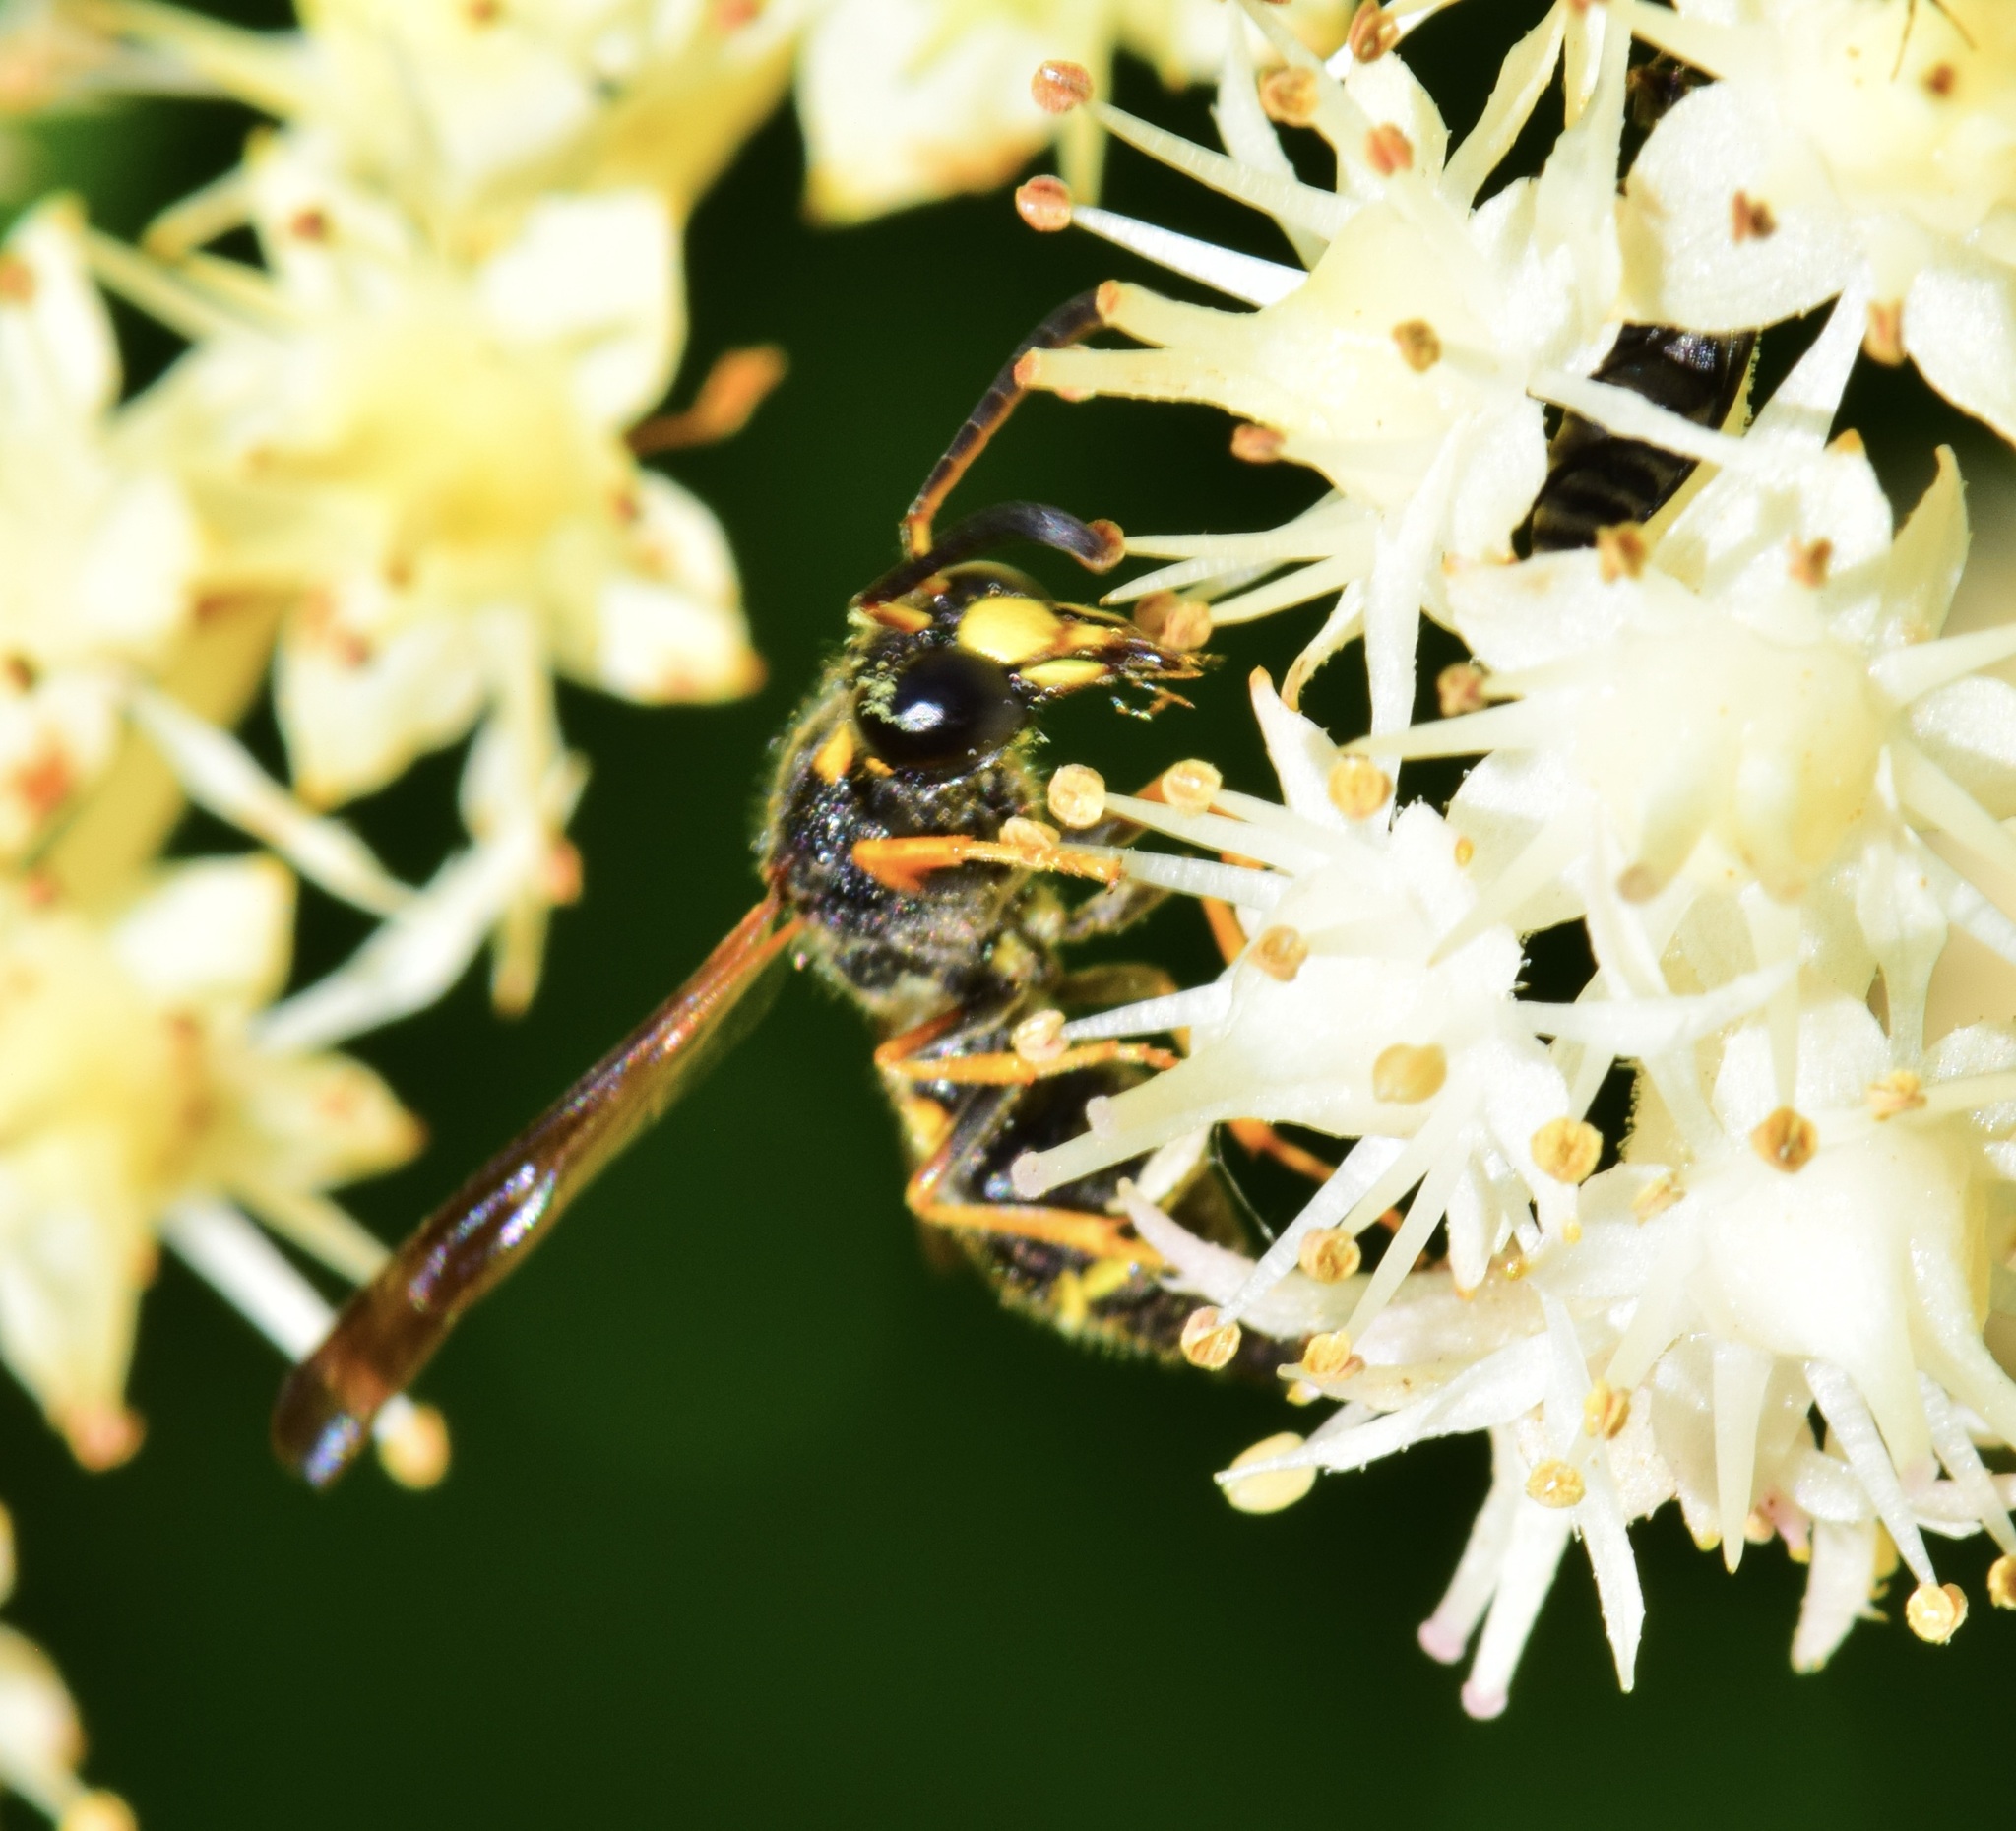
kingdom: Animalia
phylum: Arthropoda
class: Insecta
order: Hymenoptera
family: Eumenidae
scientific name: Eumenidae
